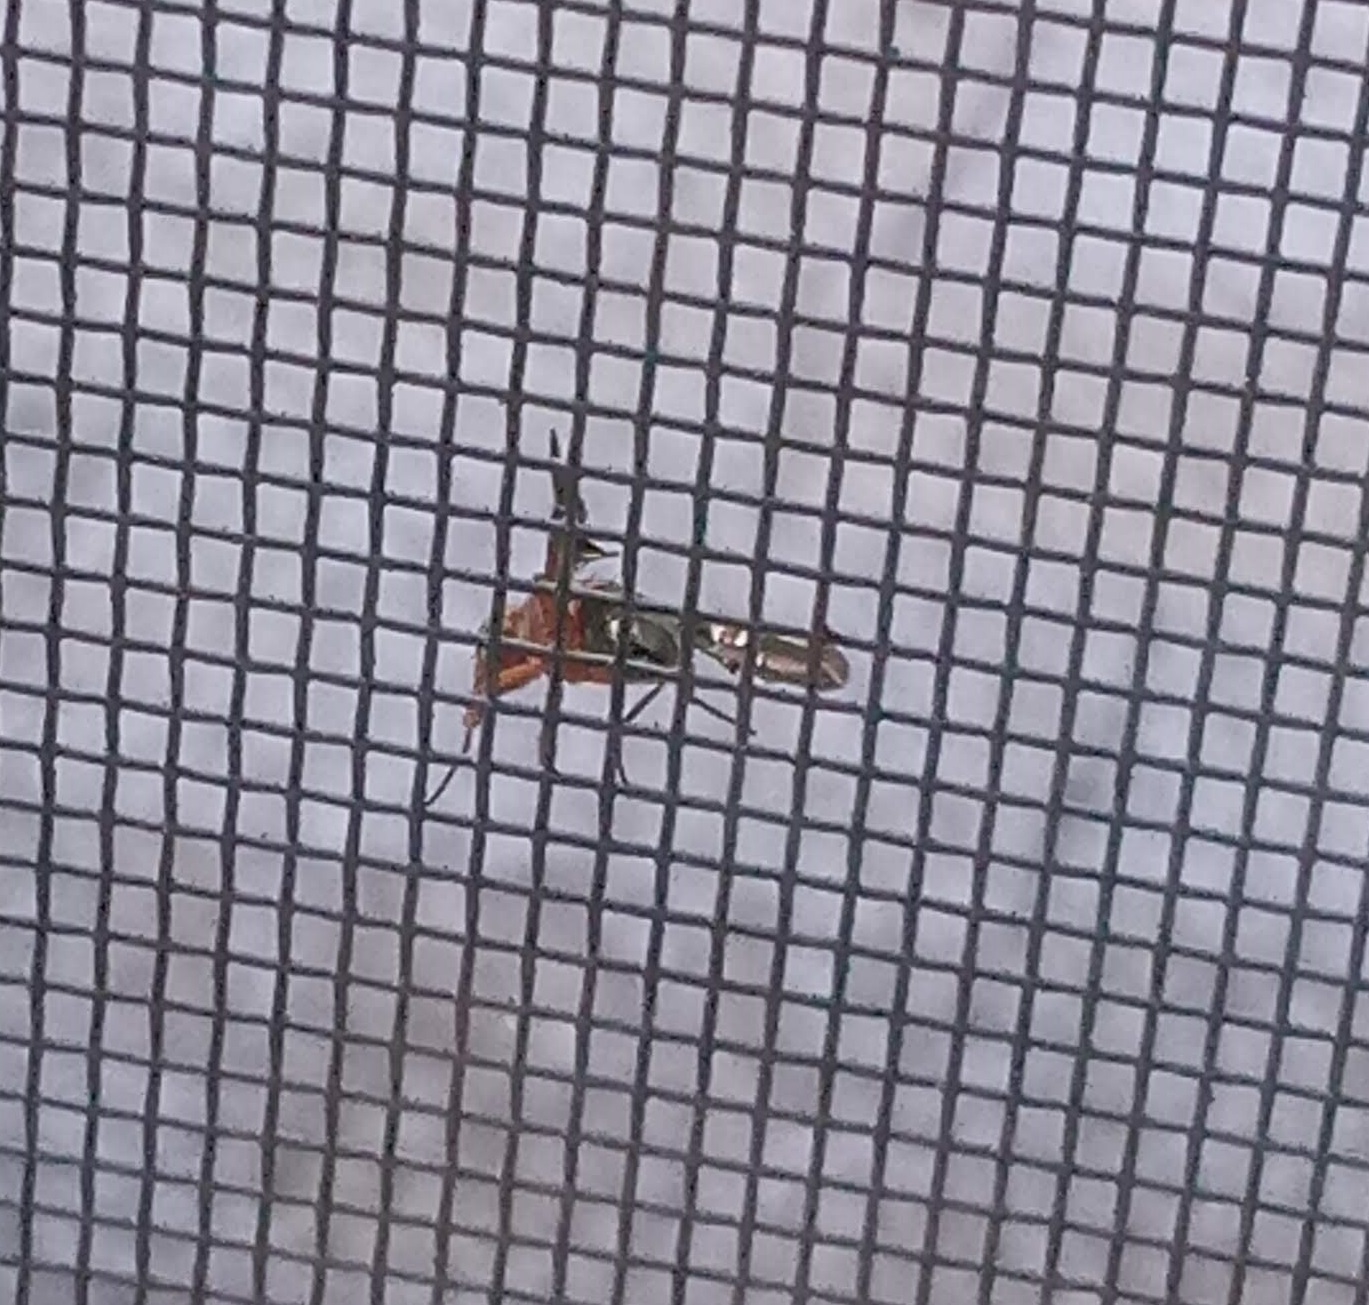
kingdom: Animalia
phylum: Arthropoda
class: Insecta
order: Diptera
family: Ulidiidae
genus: Delphinia
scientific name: Delphinia picta
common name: Common picture-winged fly
